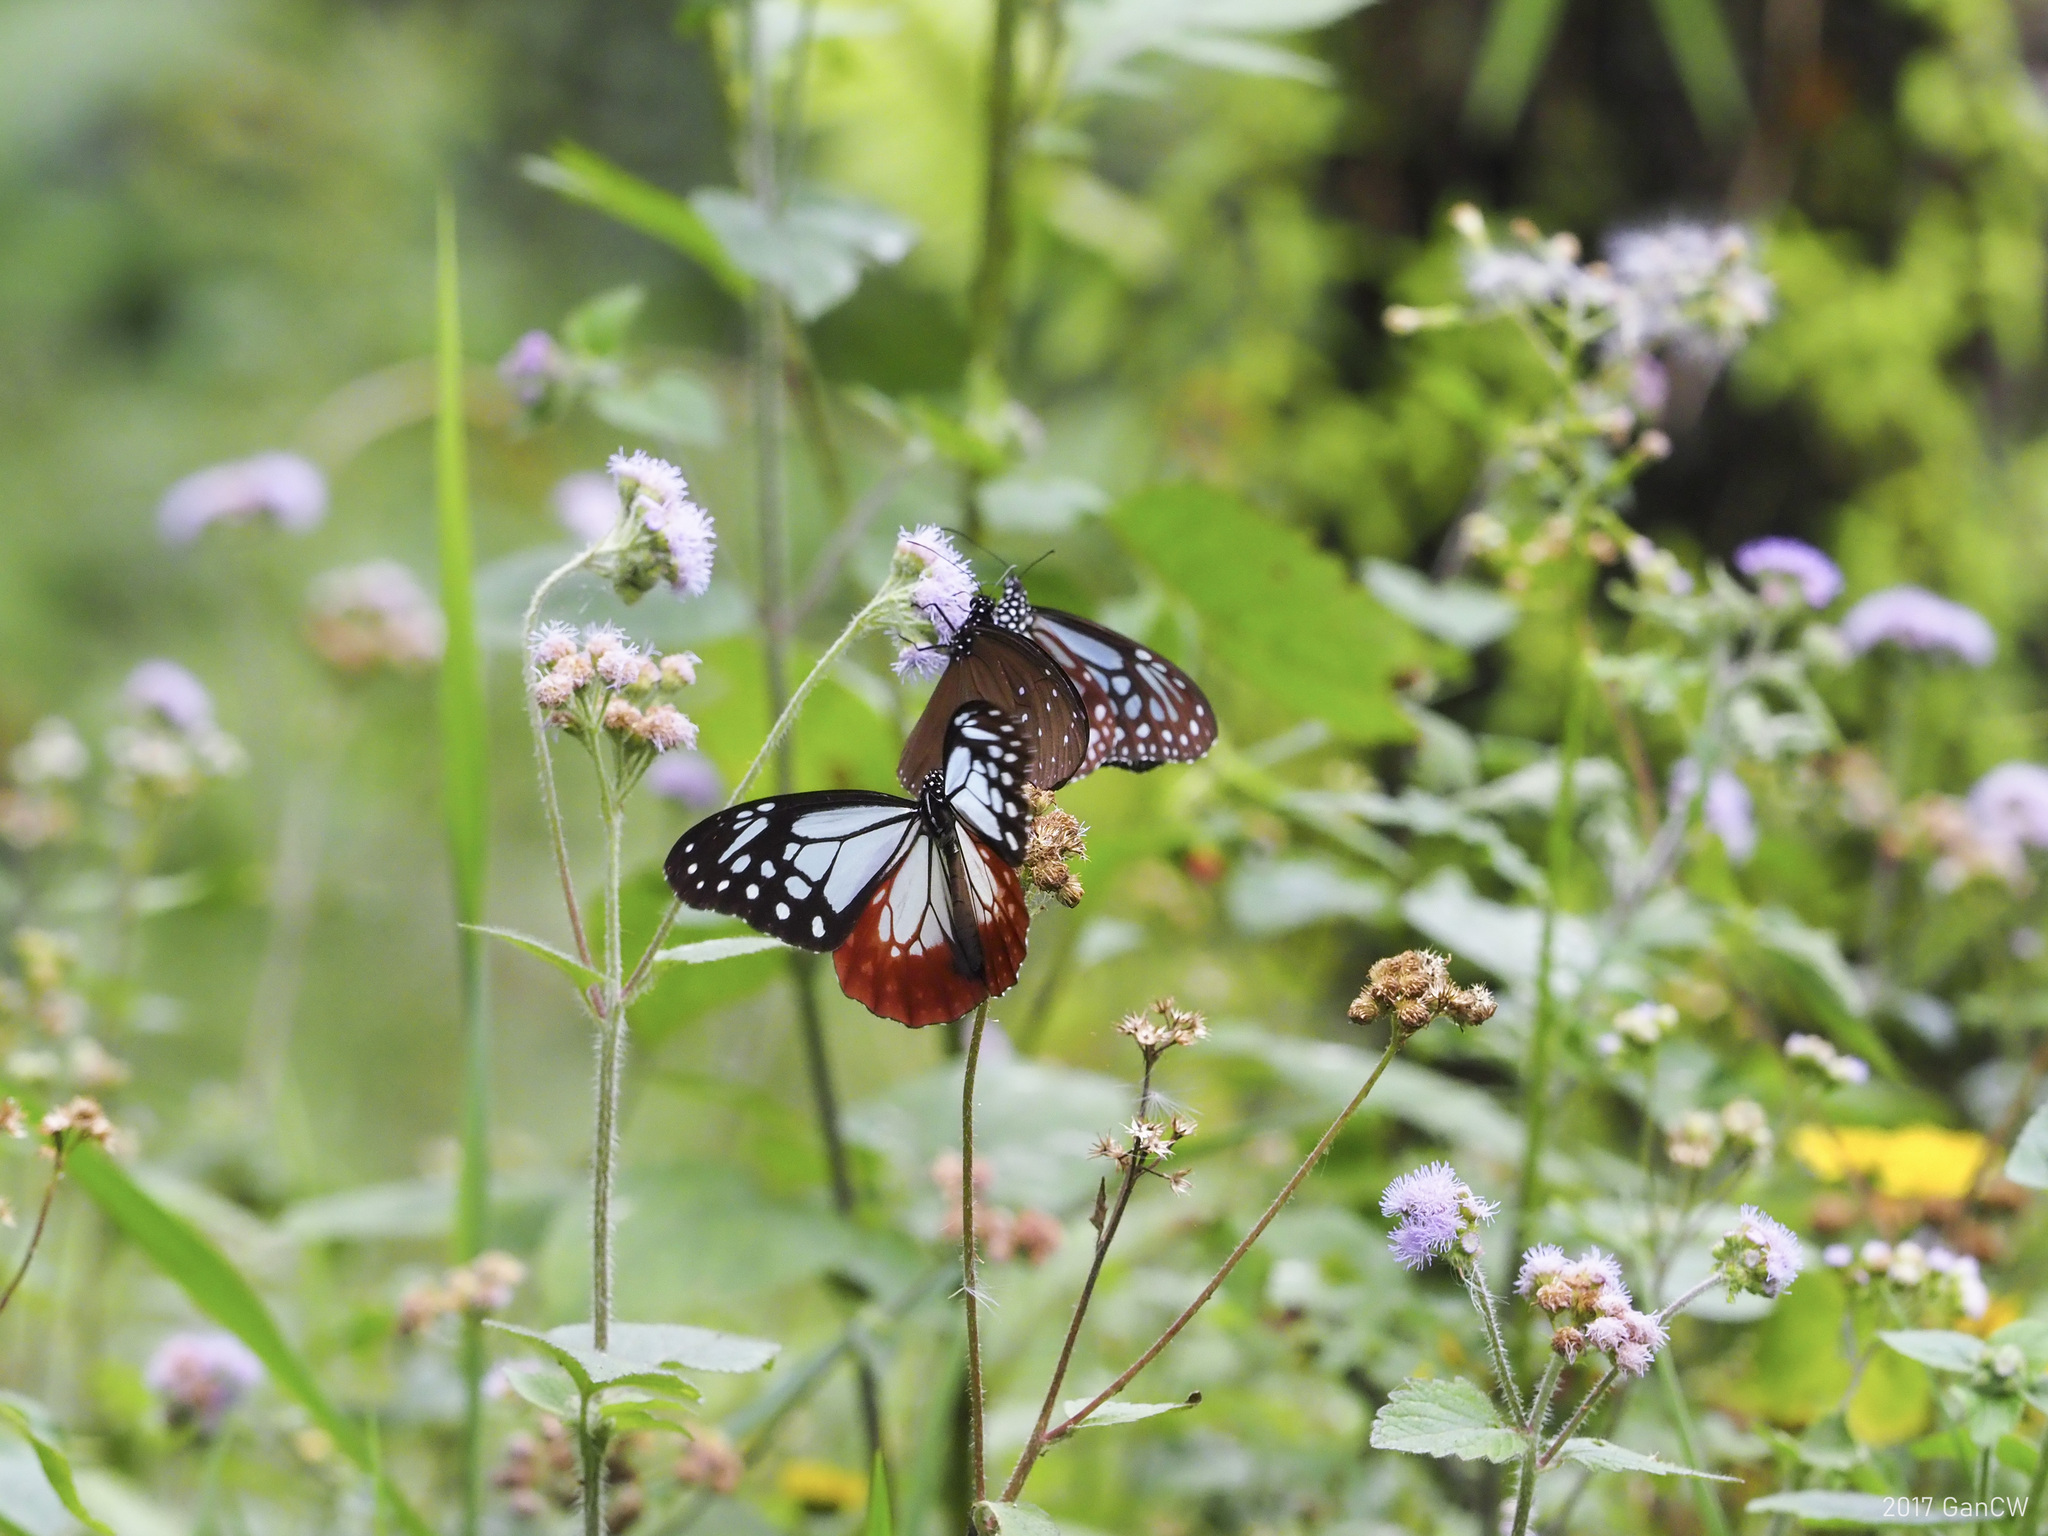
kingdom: Animalia
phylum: Arthropoda
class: Insecta
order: Lepidoptera
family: Nymphalidae
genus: Parantica
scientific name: Parantica sita
